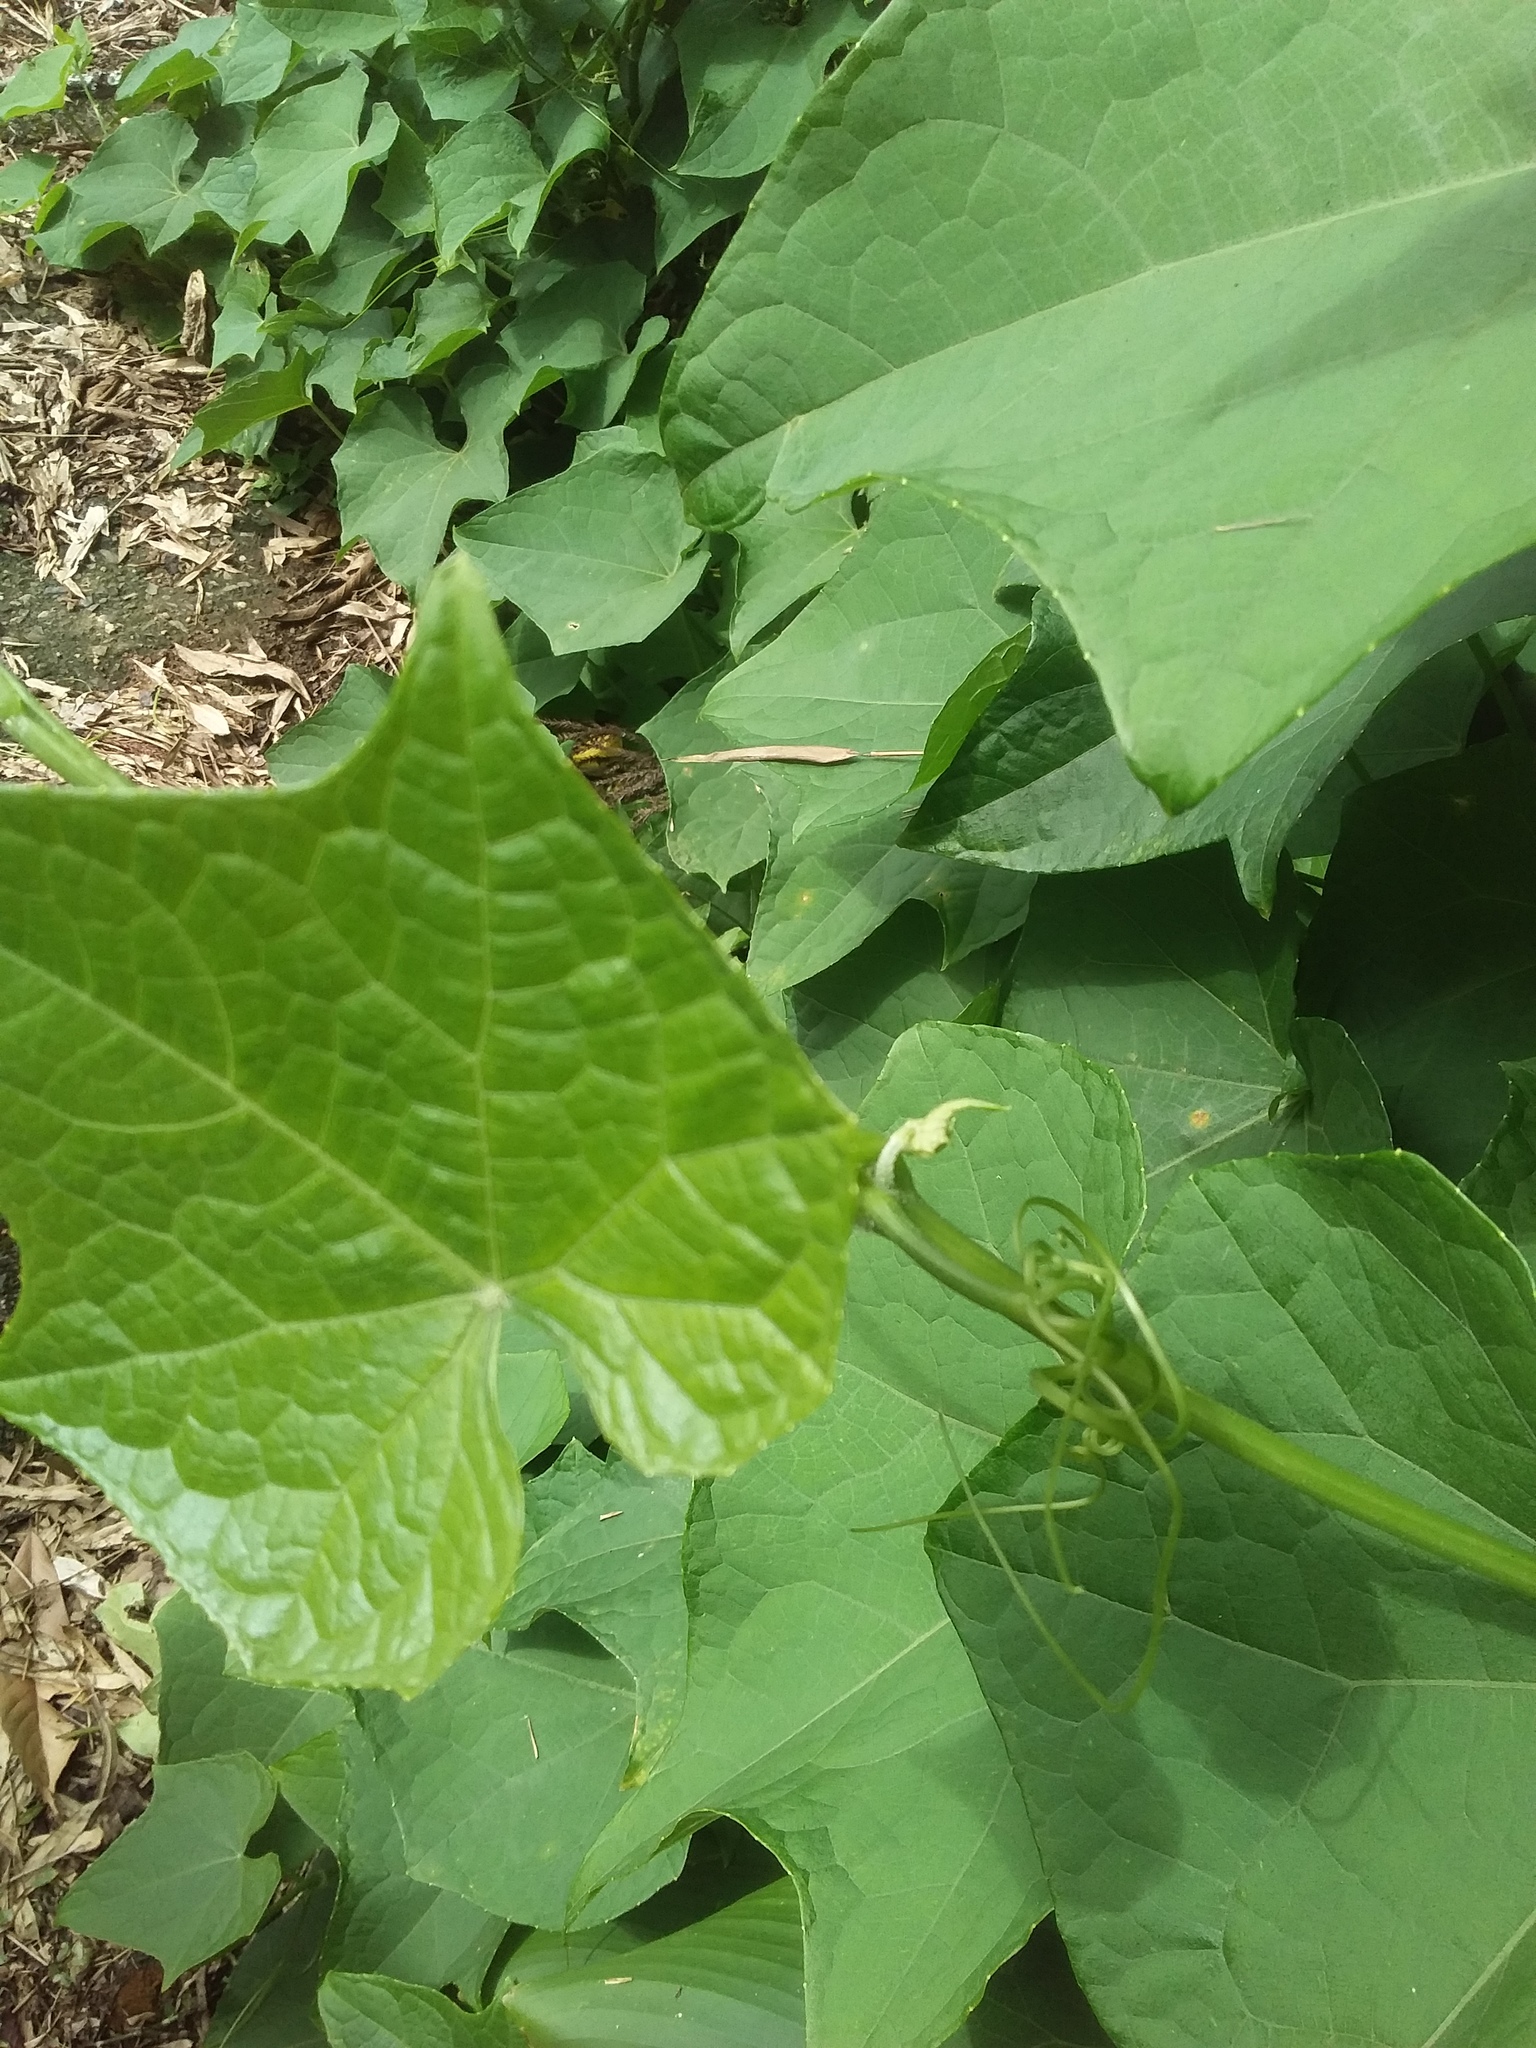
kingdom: Plantae
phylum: Tracheophyta
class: Magnoliopsida
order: Cucurbitales
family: Cucurbitaceae
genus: Sechium
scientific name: Sechium edule
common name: Chayote
